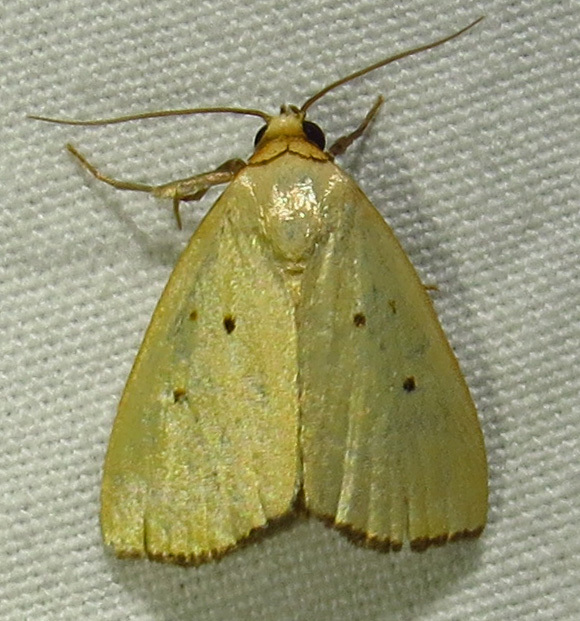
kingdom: Animalia
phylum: Arthropoda
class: Insecta
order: Lepidoptera
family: Noctuidae
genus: Marimatha
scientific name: Marimatha nigrofimbria
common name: Black-bordered lemon moth
